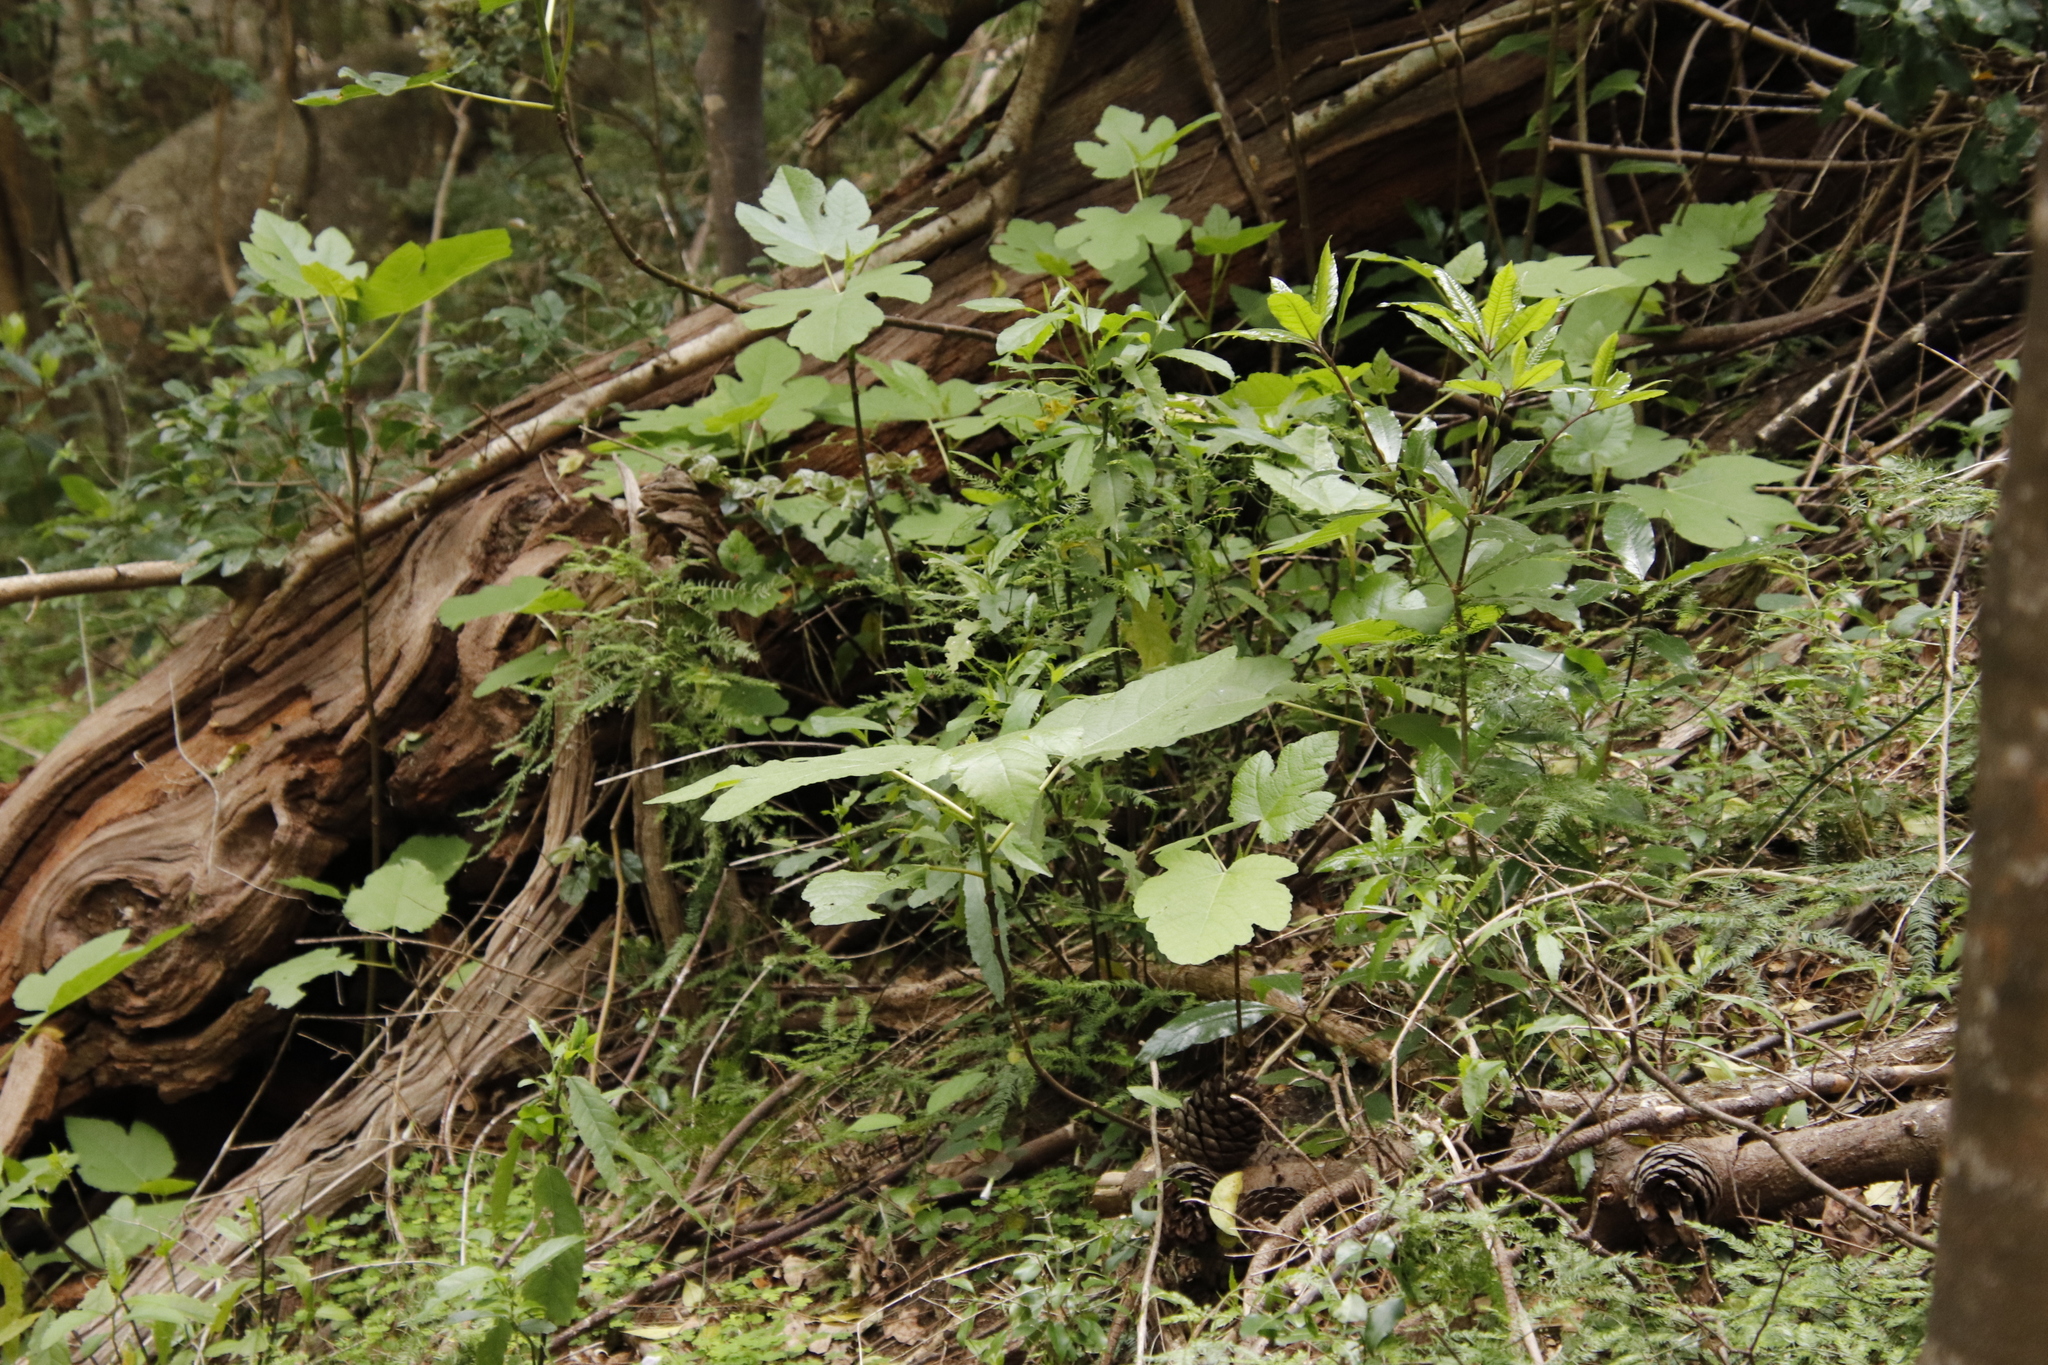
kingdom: Plantae
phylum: Tracheophyta
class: Magnoliopsida
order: Rosales
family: Moraceae
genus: Ficus
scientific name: Ficus carica
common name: Fig
